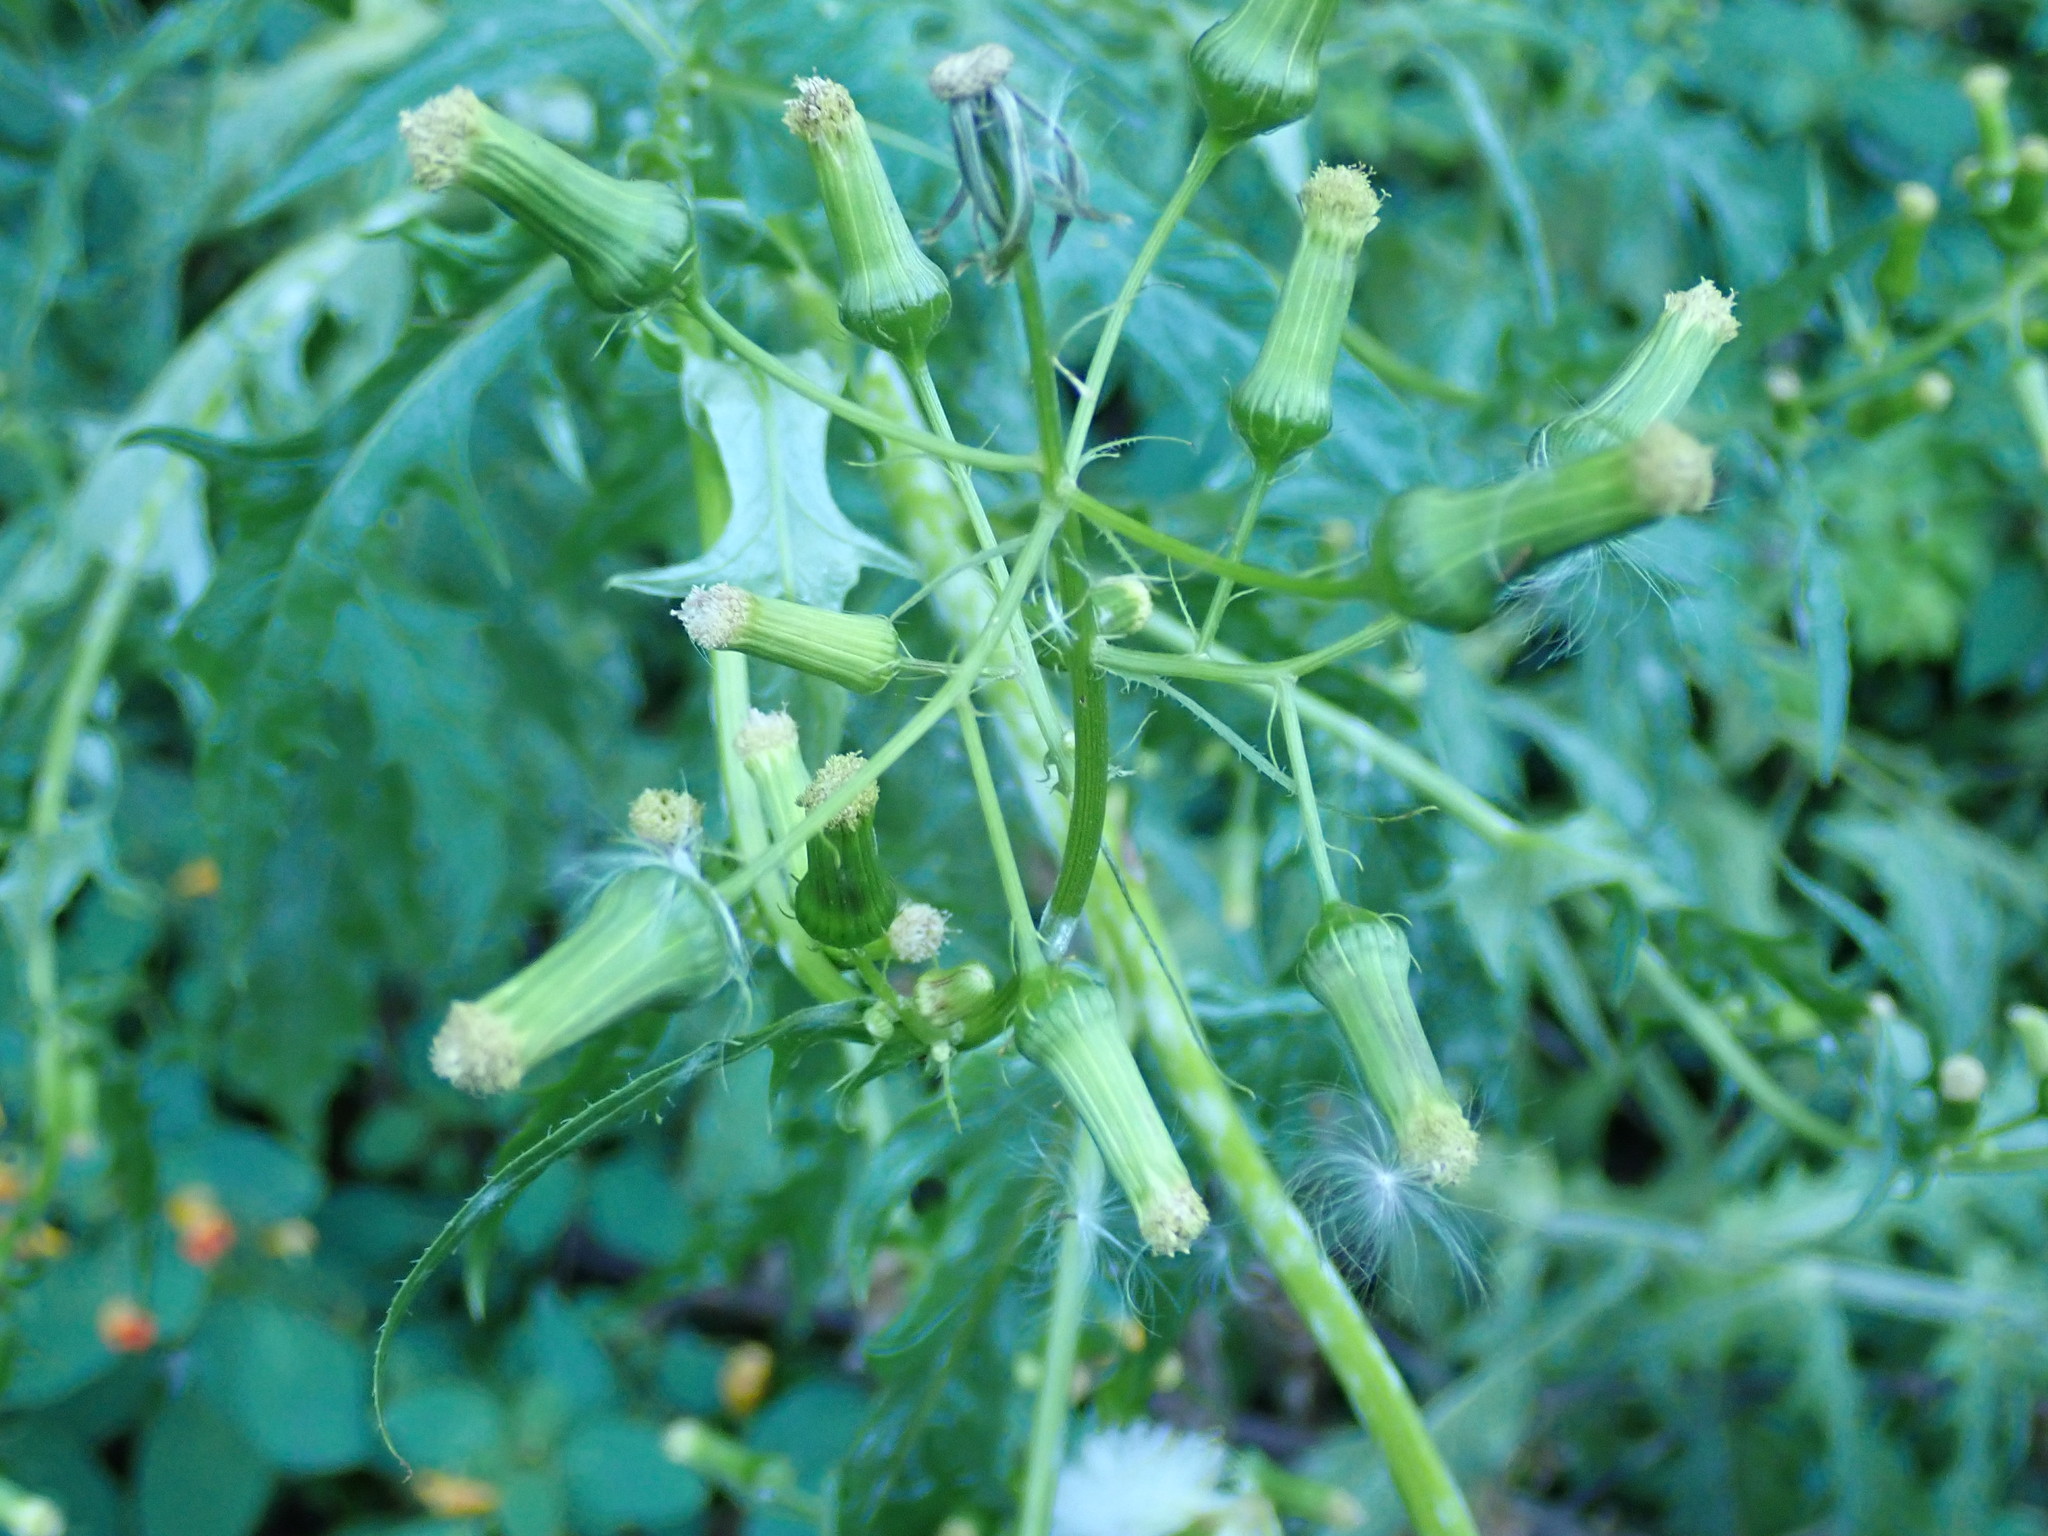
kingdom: Plantae
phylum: Tracheophyta
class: Magnoliopsida
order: Asterales
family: Asteraceae
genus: Erechtites
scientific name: Erechtites hieraciifolius
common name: American burnweed
